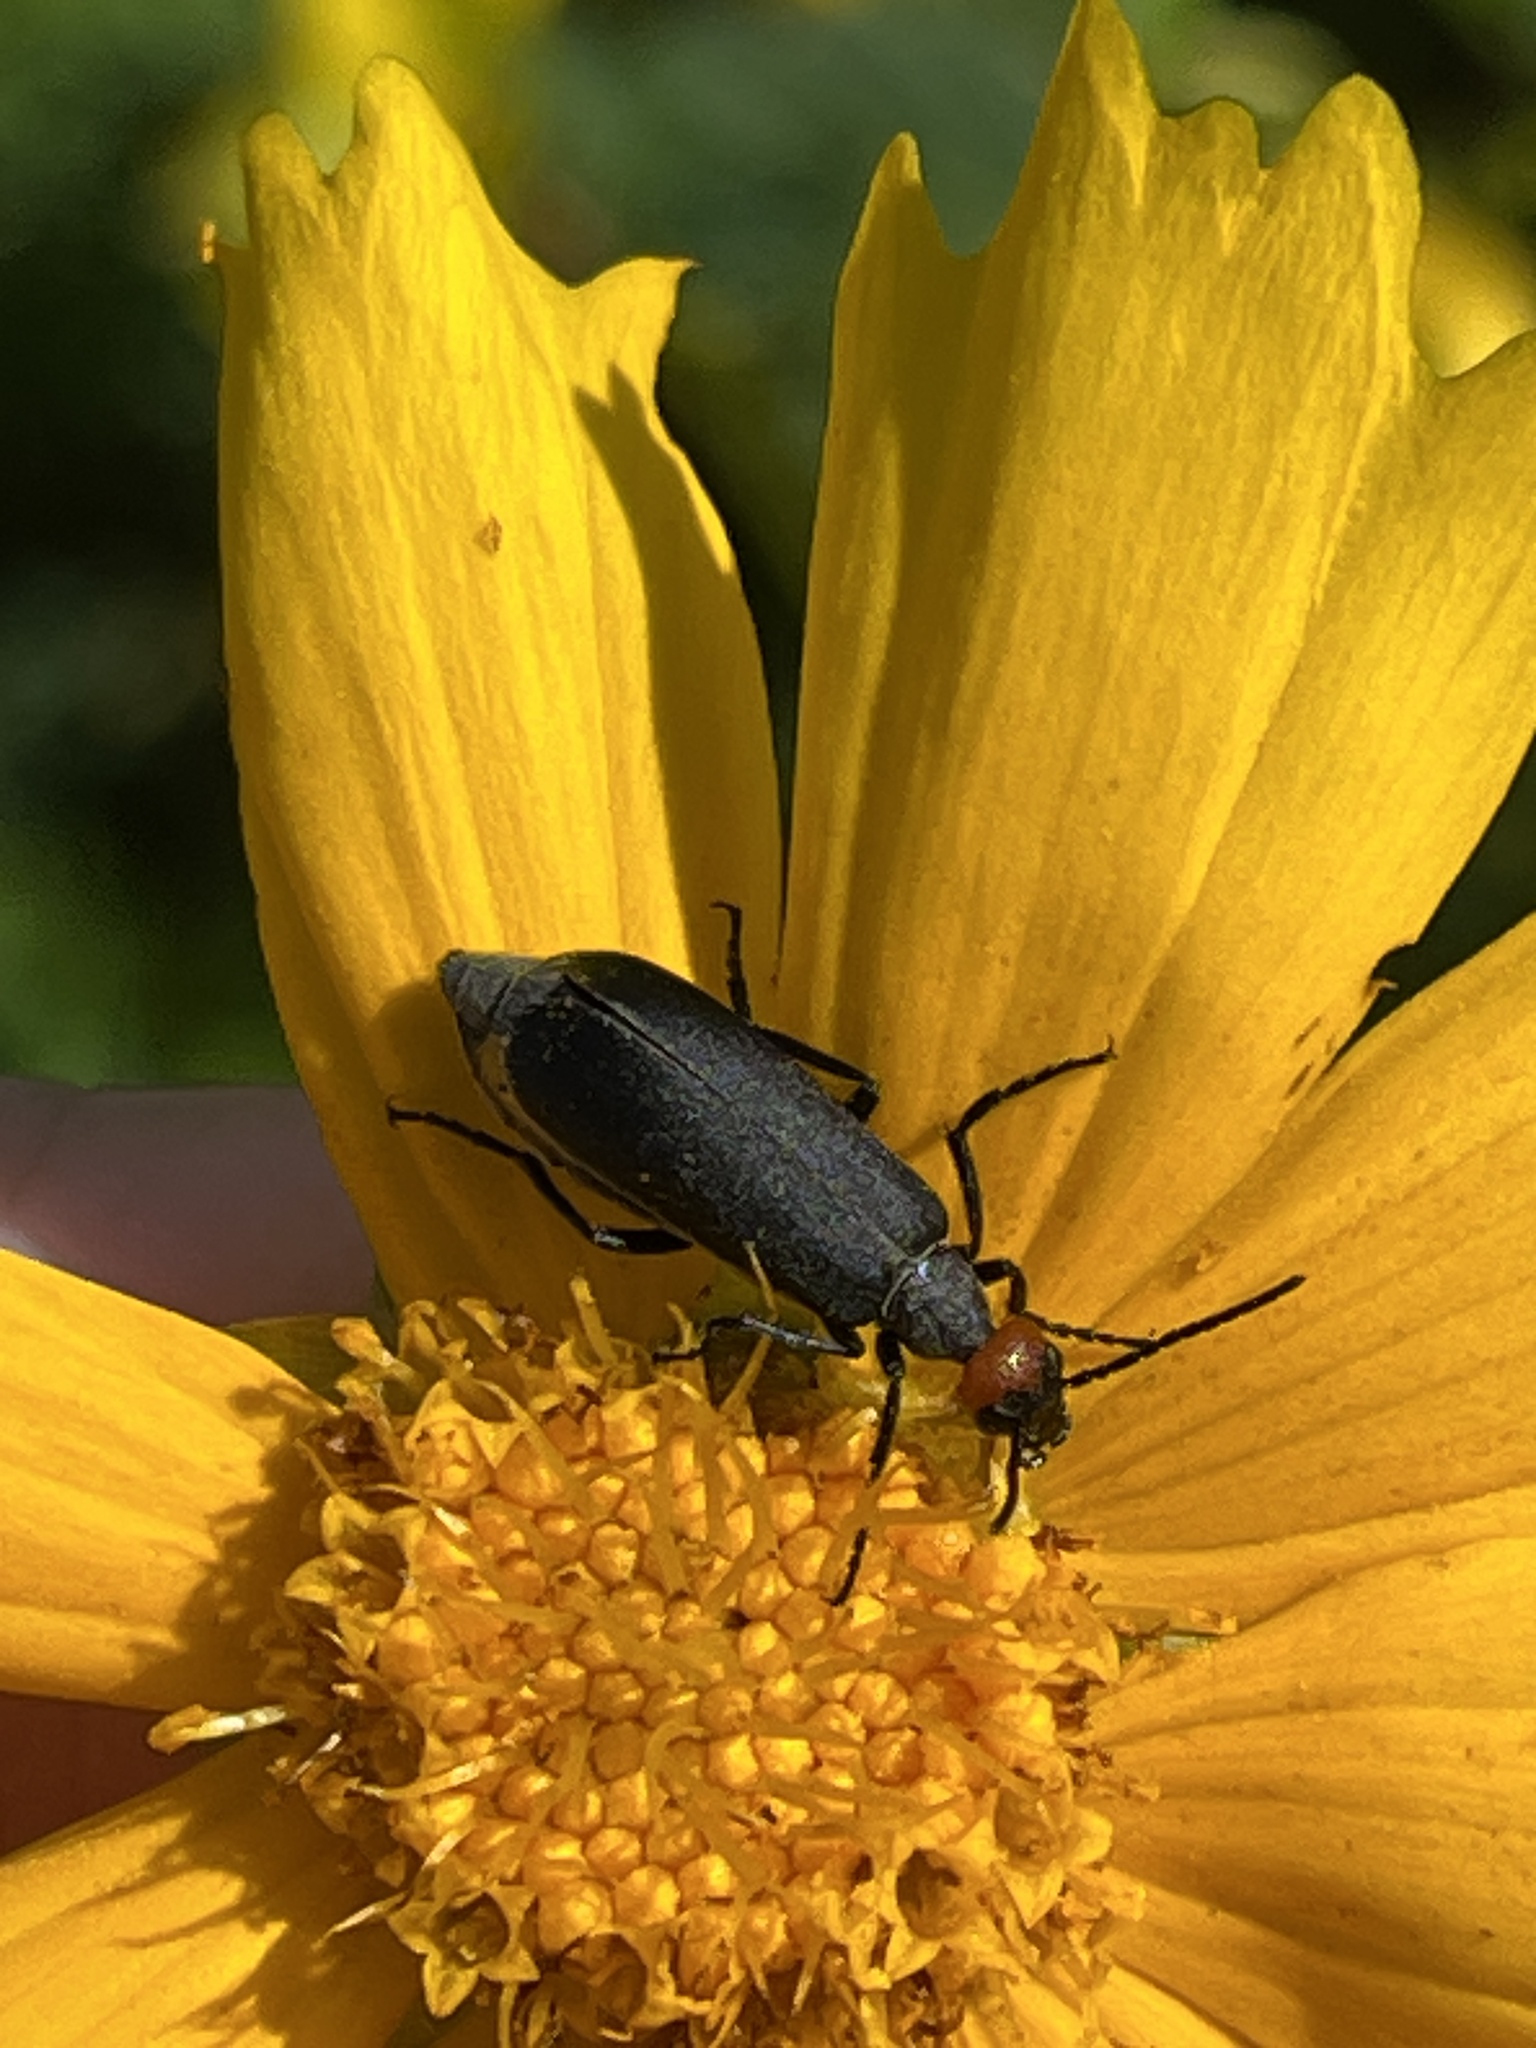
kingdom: Animalia
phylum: Arthropoda
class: Insecta
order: Coleoptera
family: Meloidae
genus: Epicauta
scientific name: Epicauta atrata
